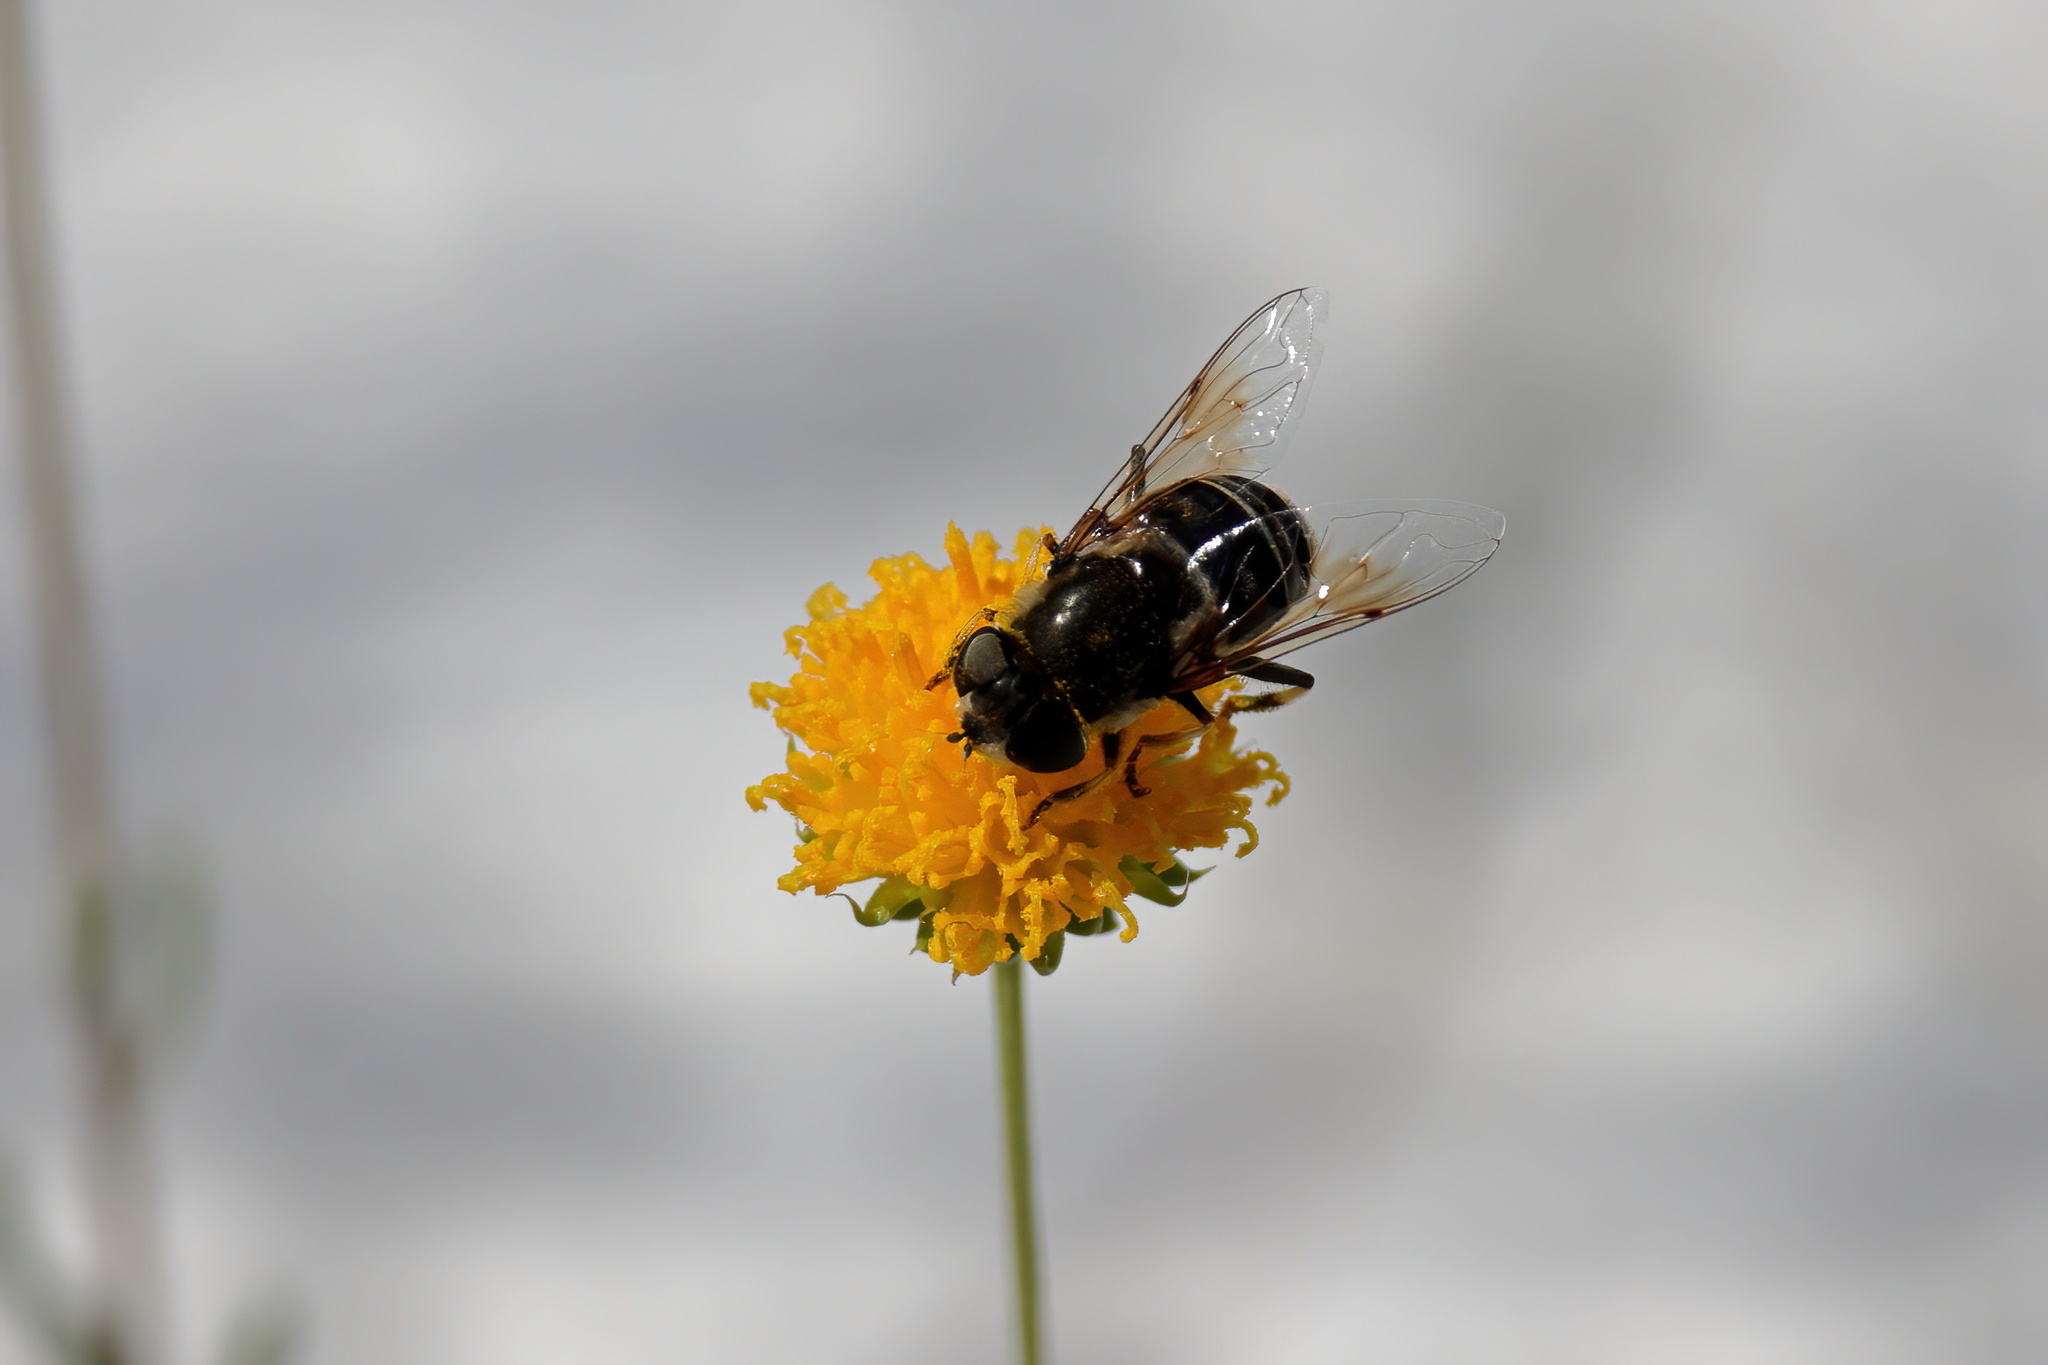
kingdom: Animalia
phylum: Arthropoda
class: Insecta
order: Diptera
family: Syrphidae
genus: Eristalis
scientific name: Eristalis dimidiata
